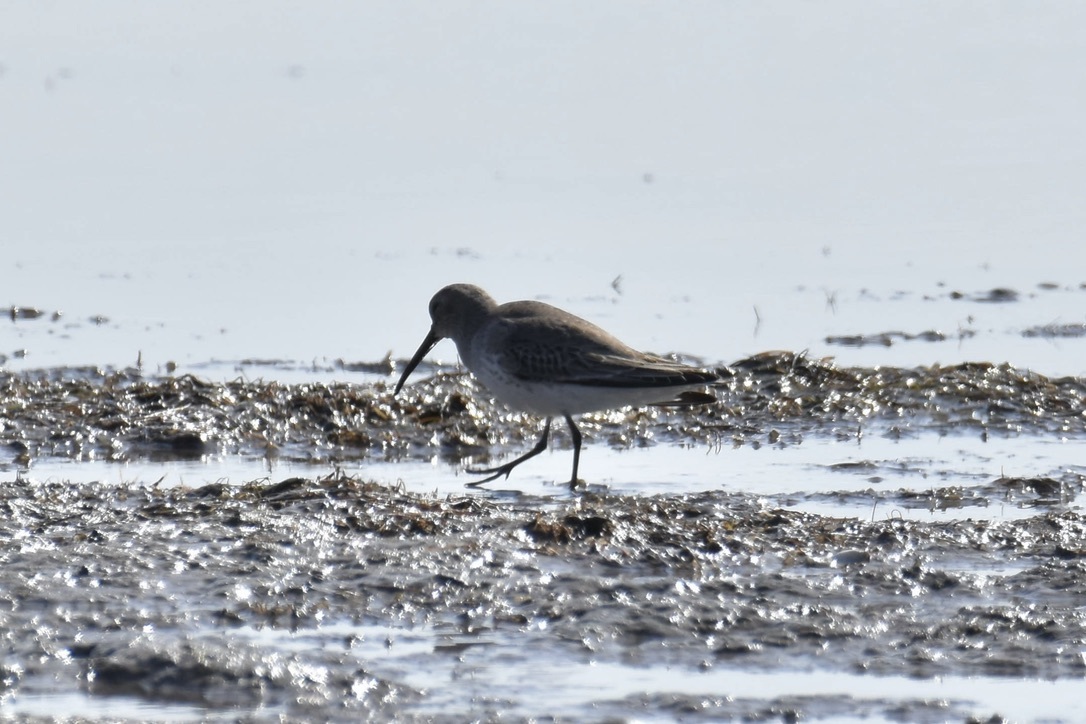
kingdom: Animalia
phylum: Chordata
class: Aves
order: Charadriiformes
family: Scolopacidae
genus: Calidris
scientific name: Calidris alpina
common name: Dunlin
